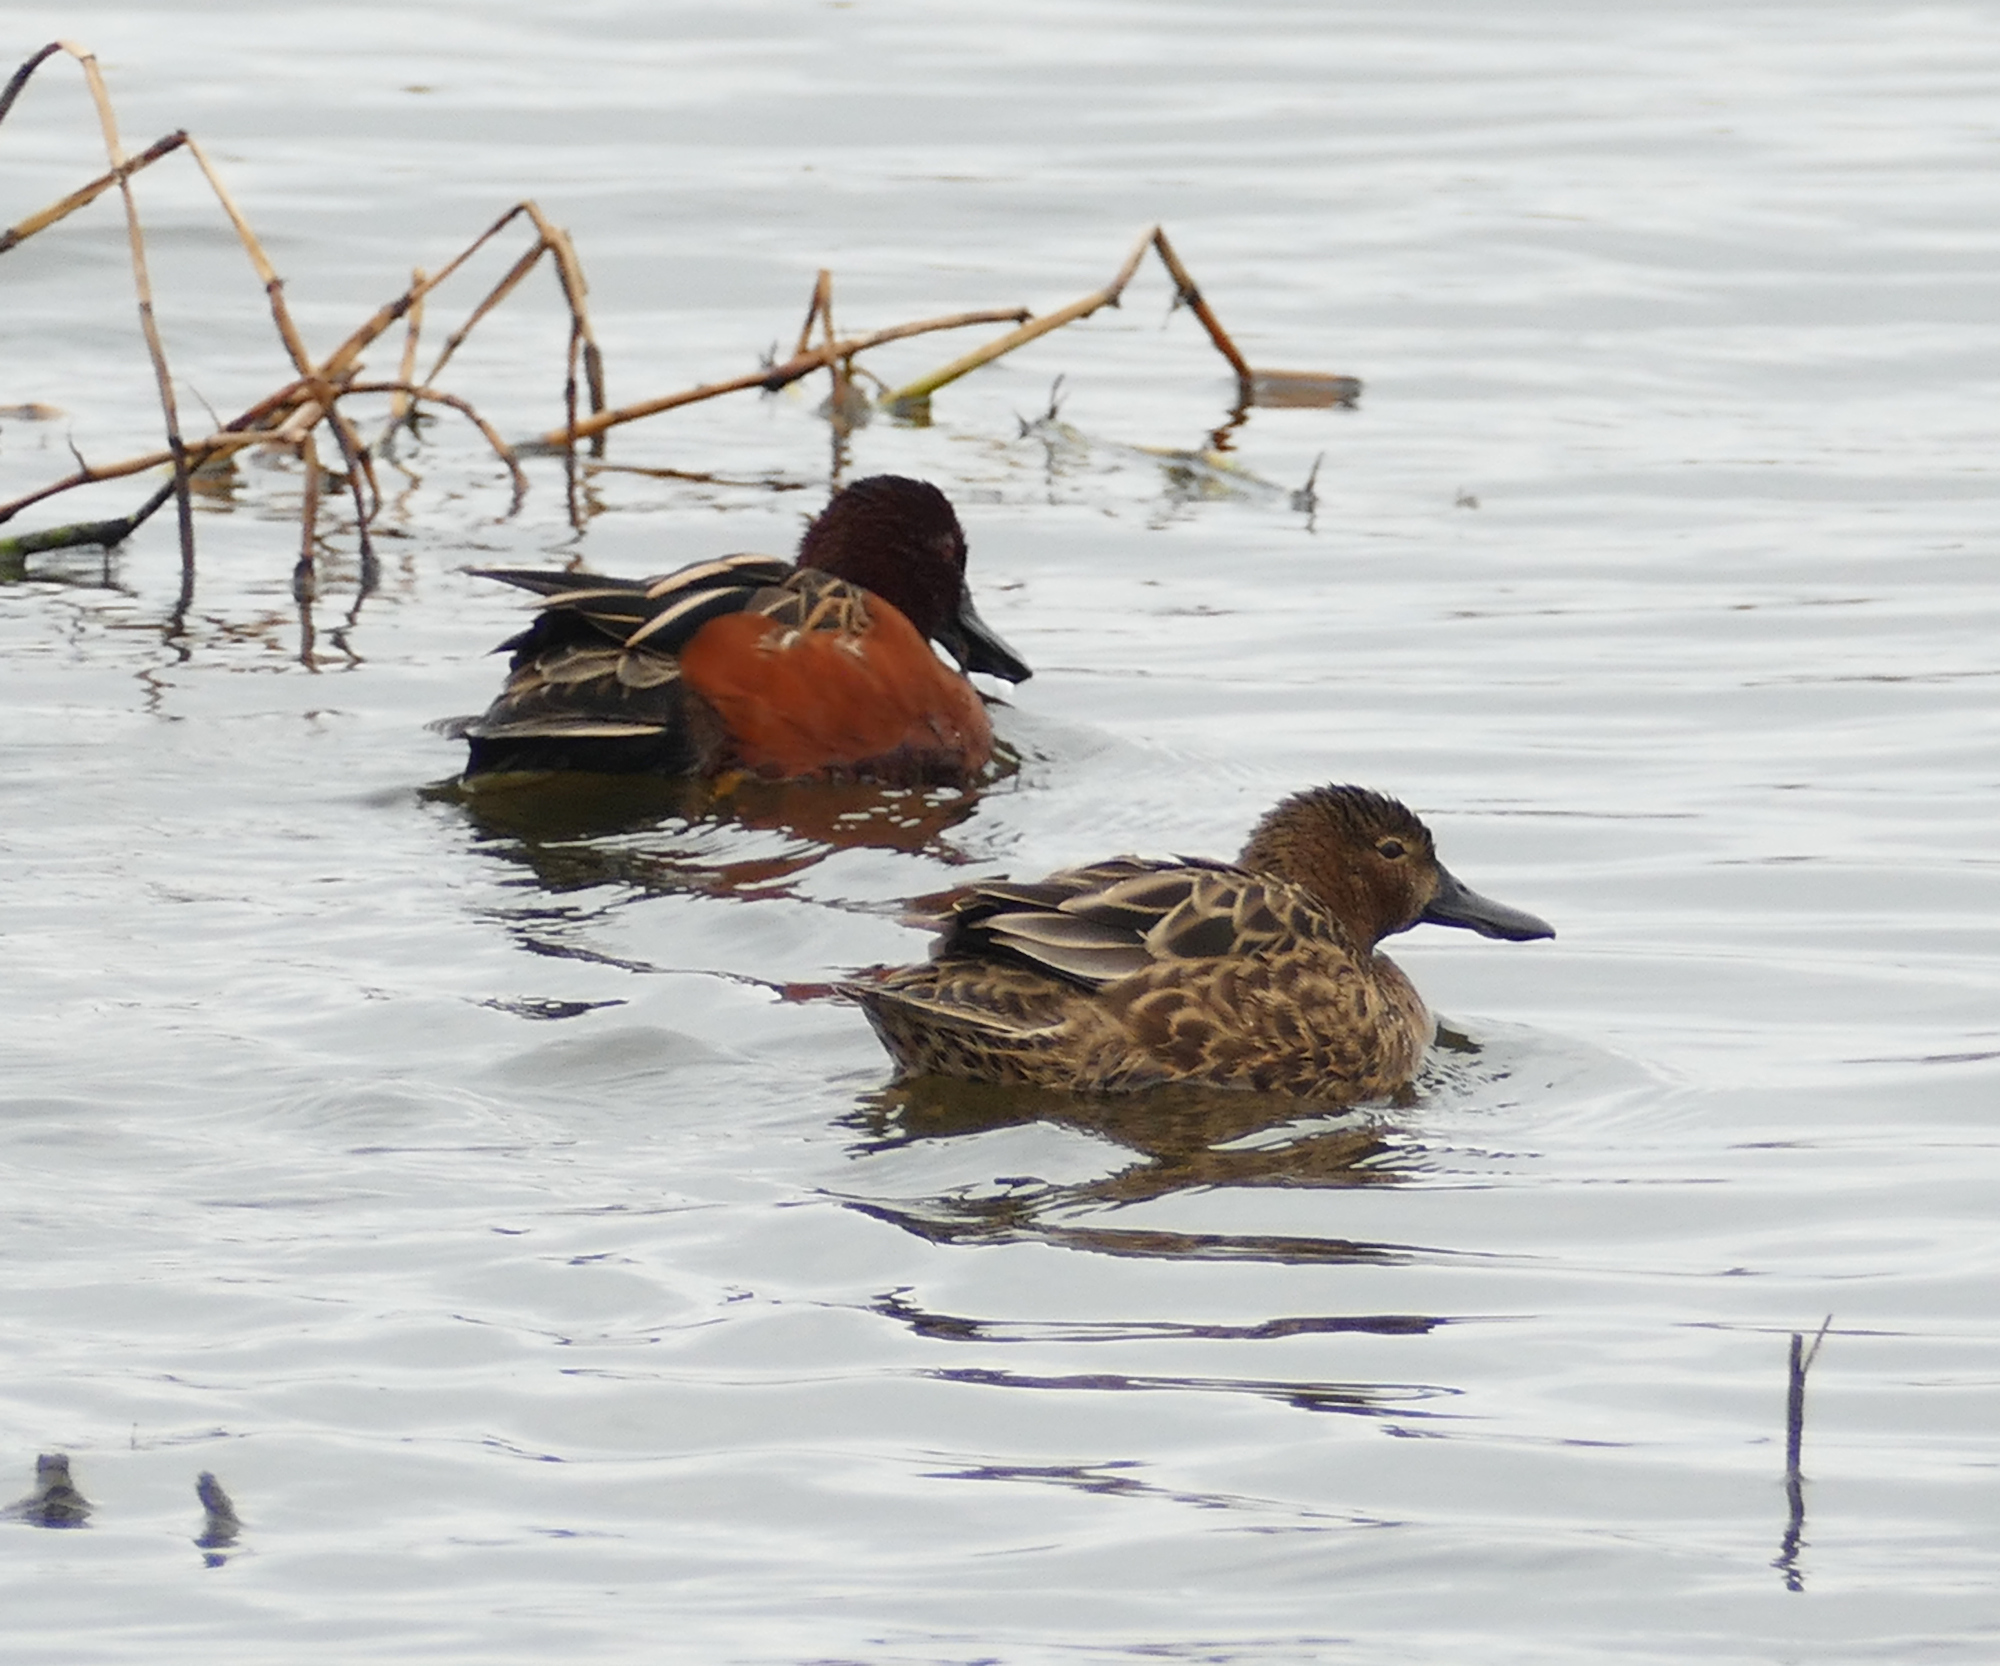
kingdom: Animalia
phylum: Chordata
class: Aves
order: Anseriformes
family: Anatidae
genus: Spatula
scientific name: Spatula cyanoptera
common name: Cinnamon teal
